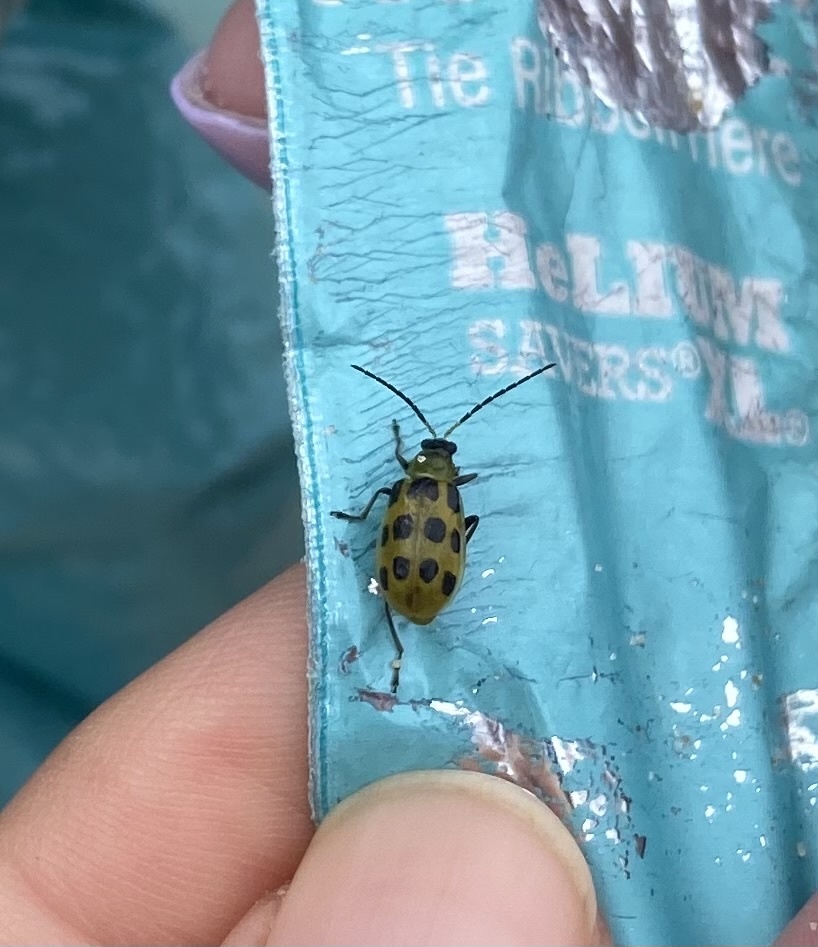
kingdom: Animalia
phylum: Arthropoda
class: Insecta
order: Coleoptera
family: Chrysomelidae
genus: Diabrotica
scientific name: Diabrotica undecimpunctata
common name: Spotted cucumber beetle
